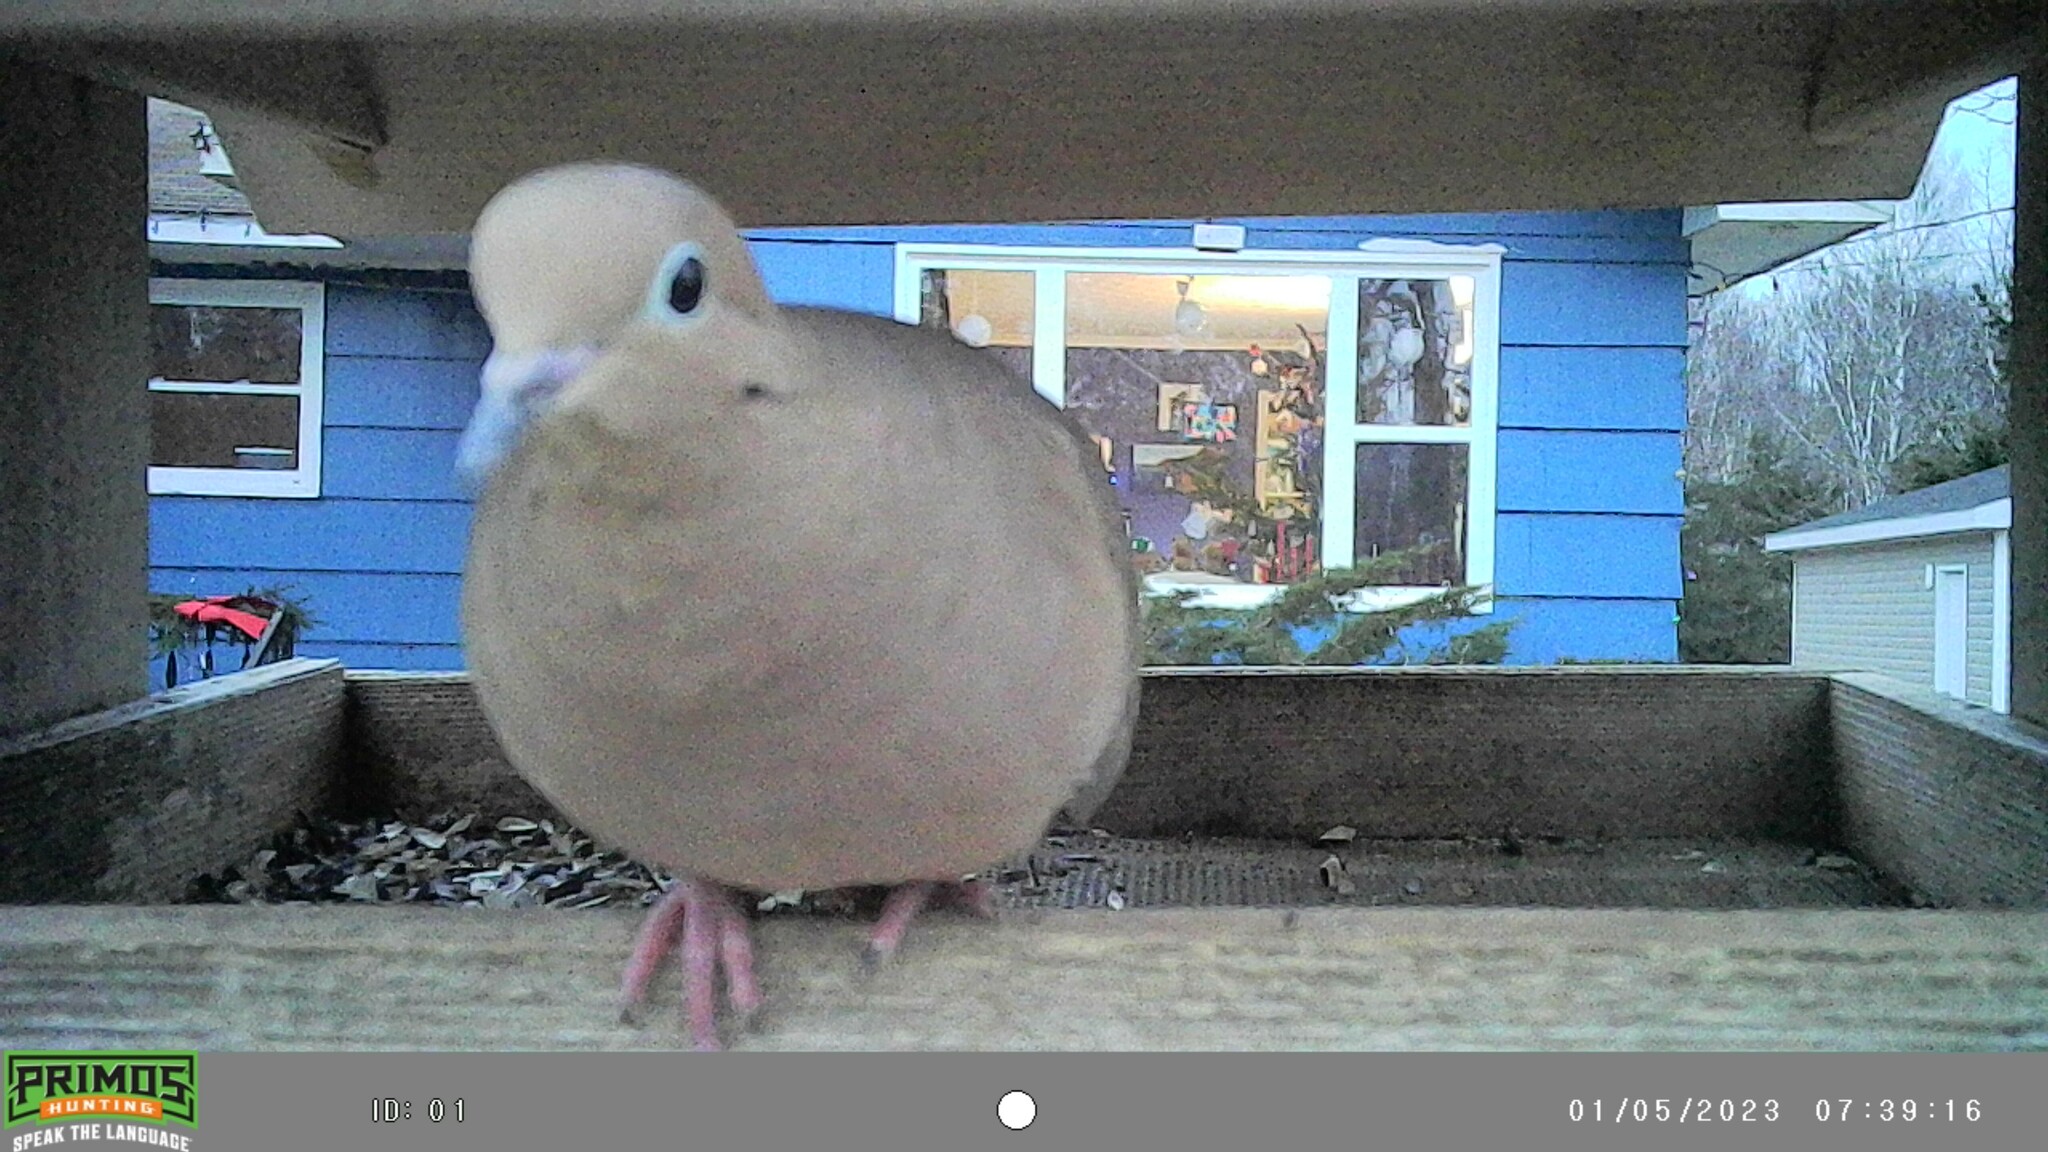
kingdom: Animalia
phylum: Chordata
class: Aves
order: Columbiformes
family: Columbidae
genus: Zenaida
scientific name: Zenaida macroura
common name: Mourning dove
